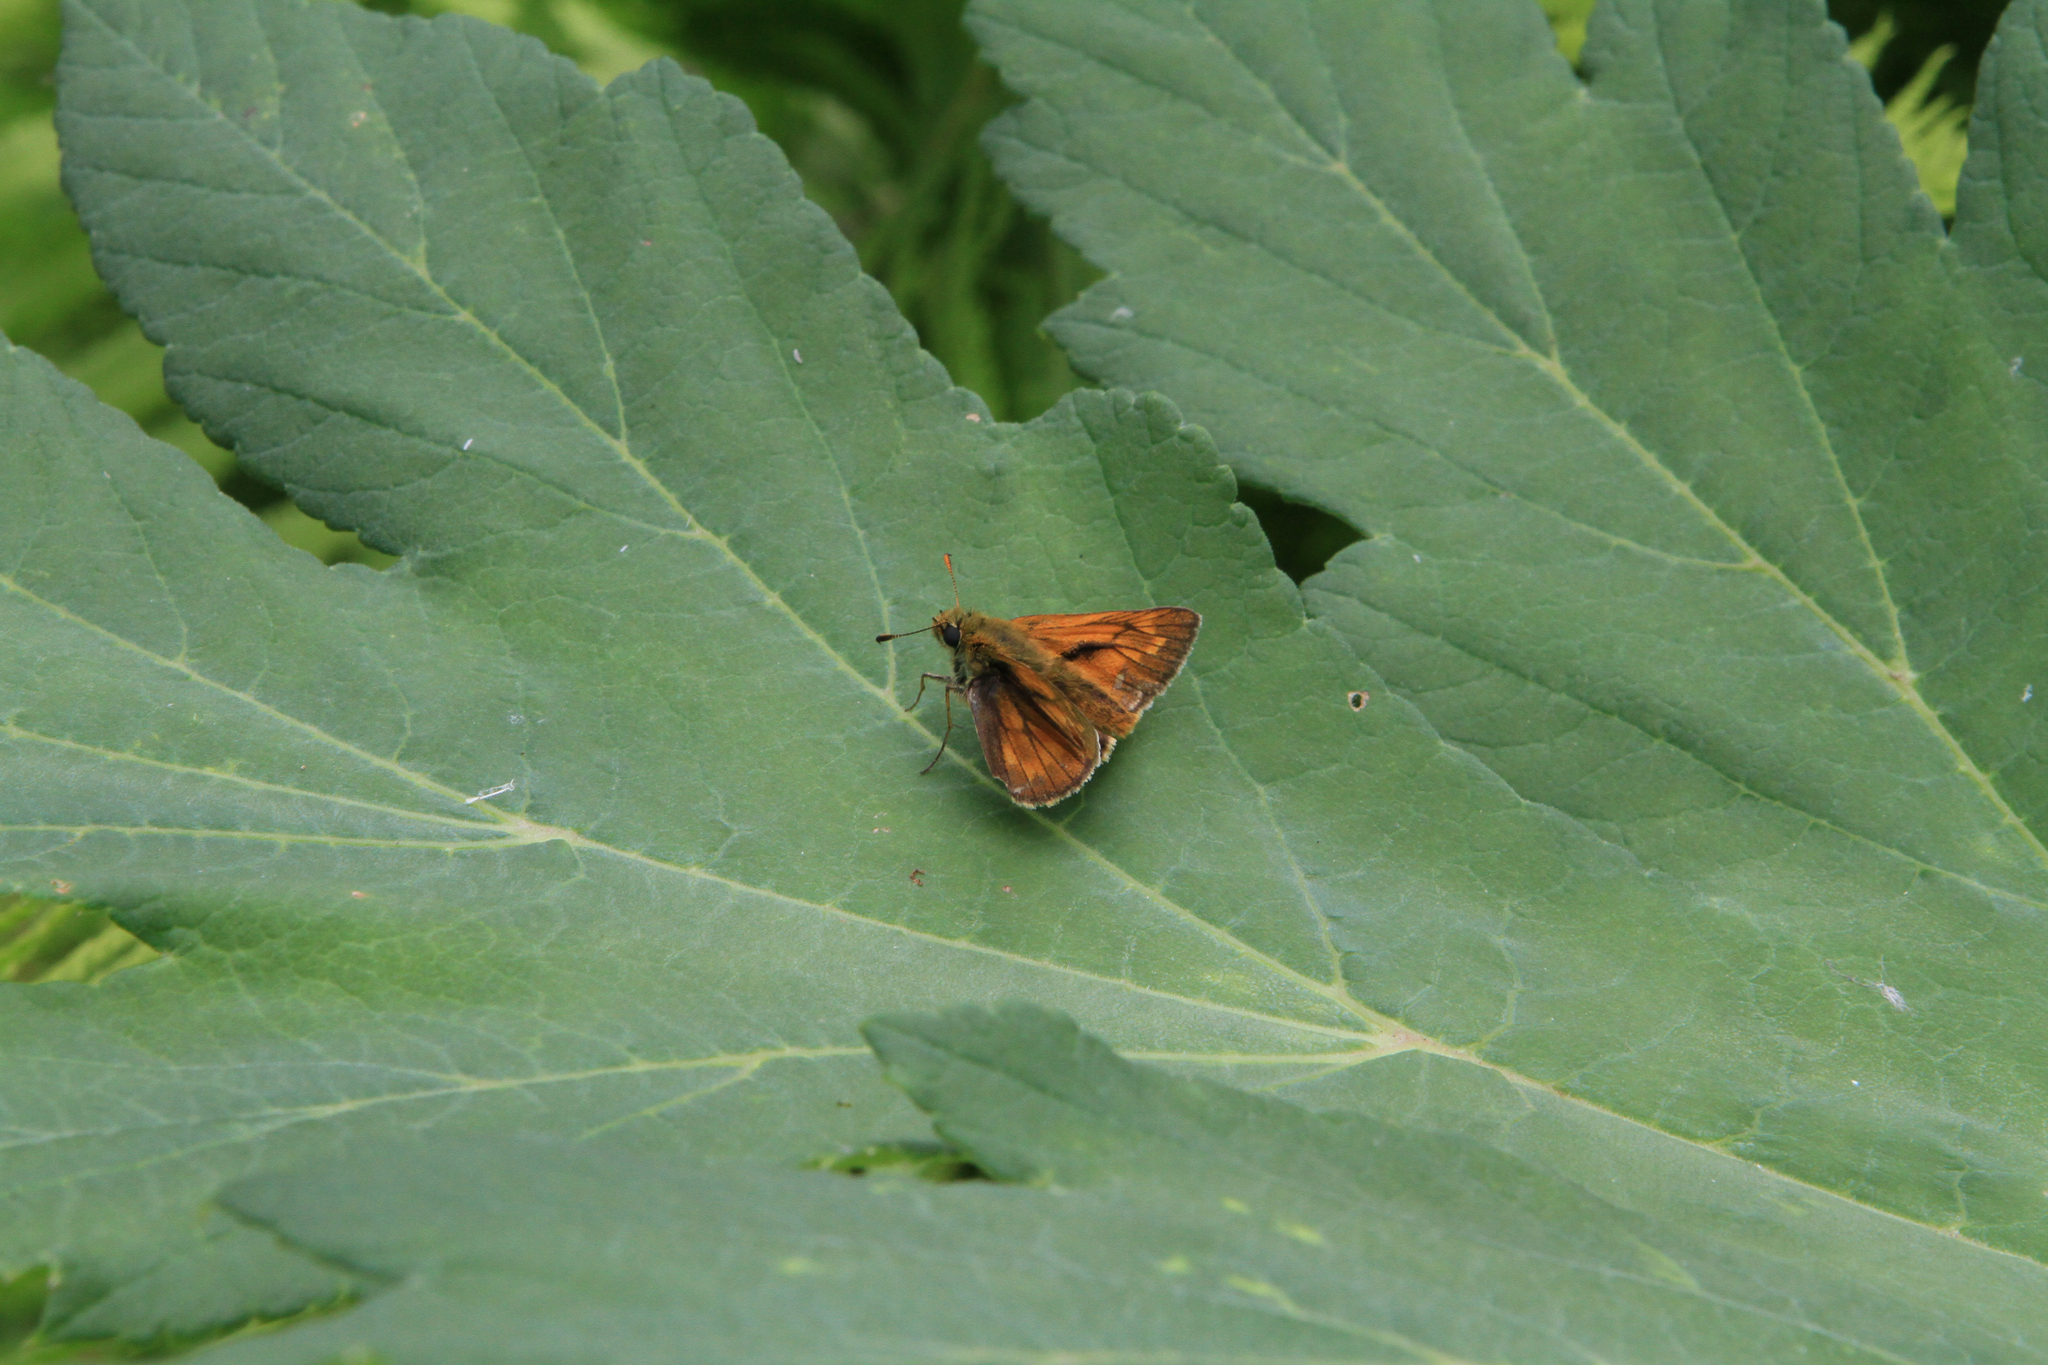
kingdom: Plantae
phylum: Tracheophyta
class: Magnoliopsida
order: Apiales
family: Apiaceae
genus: Heracleum
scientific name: Heracleum dissectum
